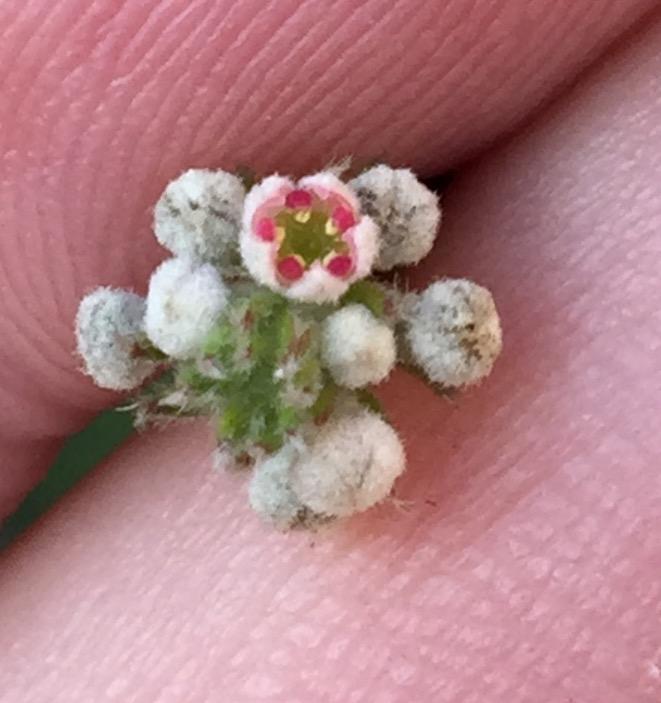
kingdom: Plantae
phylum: Tracheophyta
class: Magnoliopsida
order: Rosales
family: Rhamnaceae
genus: Phylica
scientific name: Phylica pinea
